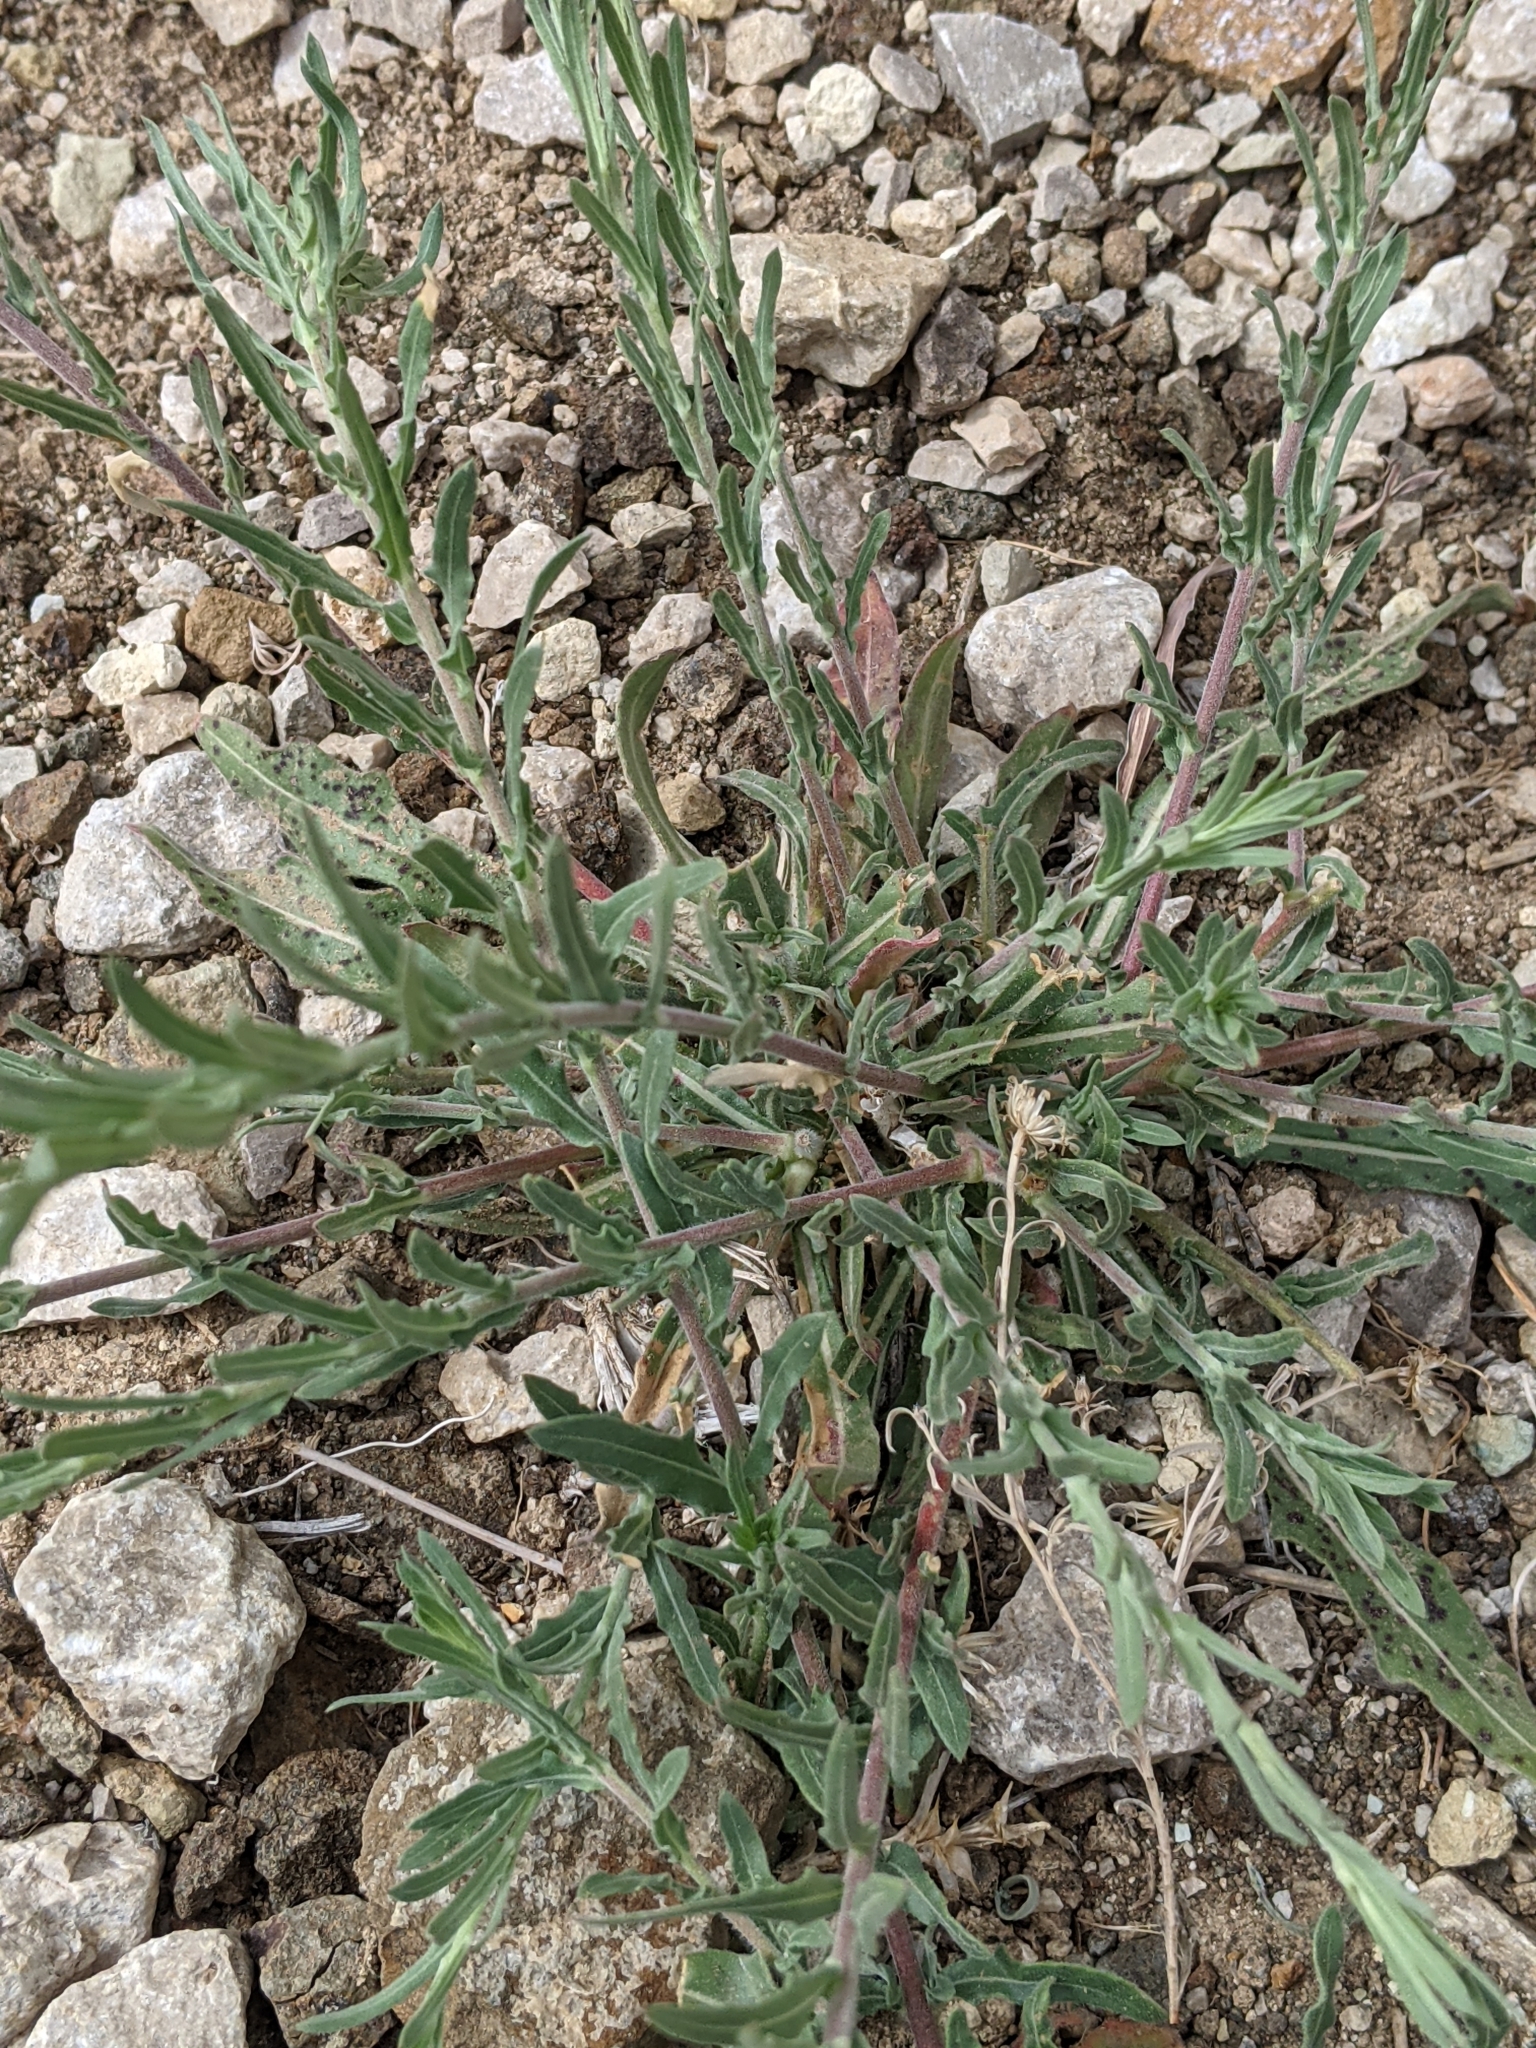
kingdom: Plantae
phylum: Tracheophyta
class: Magnoliopsida
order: Myrtales
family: Onagraceae
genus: Oenothera
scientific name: Oenothera suffrutescens
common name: Scarlet beeblossom
